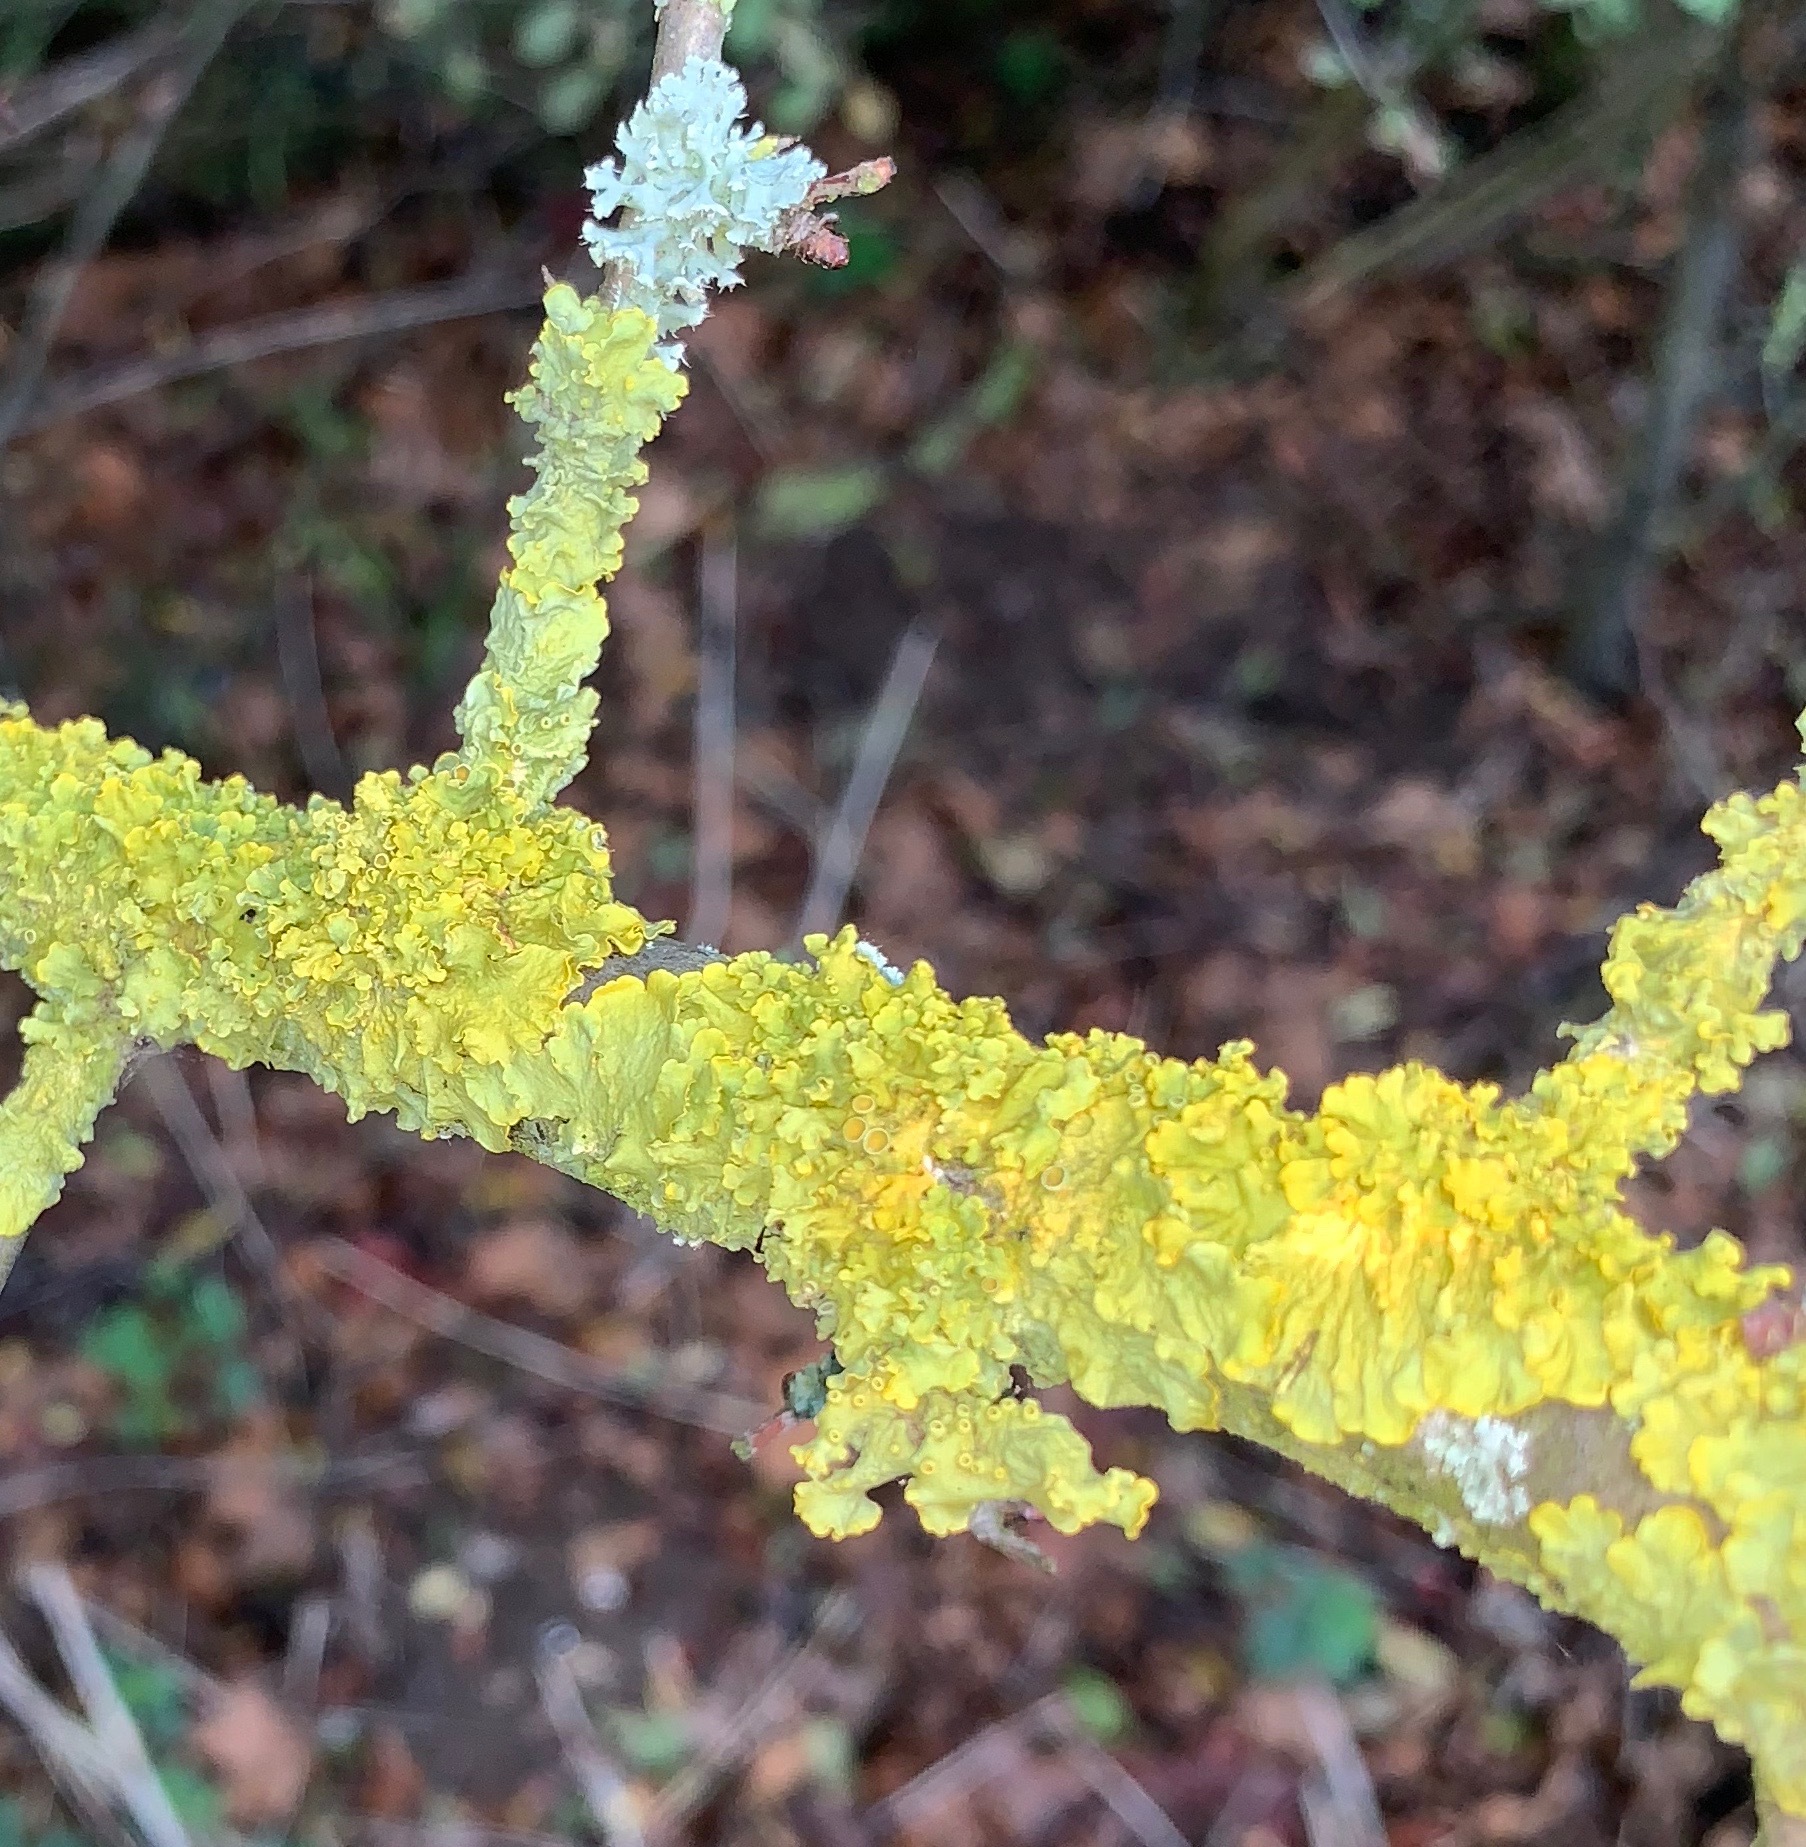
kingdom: Fungi
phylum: Ascomycota
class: Lecanoromycetes
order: Teloschistales
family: Teloschistaceae
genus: Xanthoria
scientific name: Xanthoria parietina
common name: Common orange lichen
